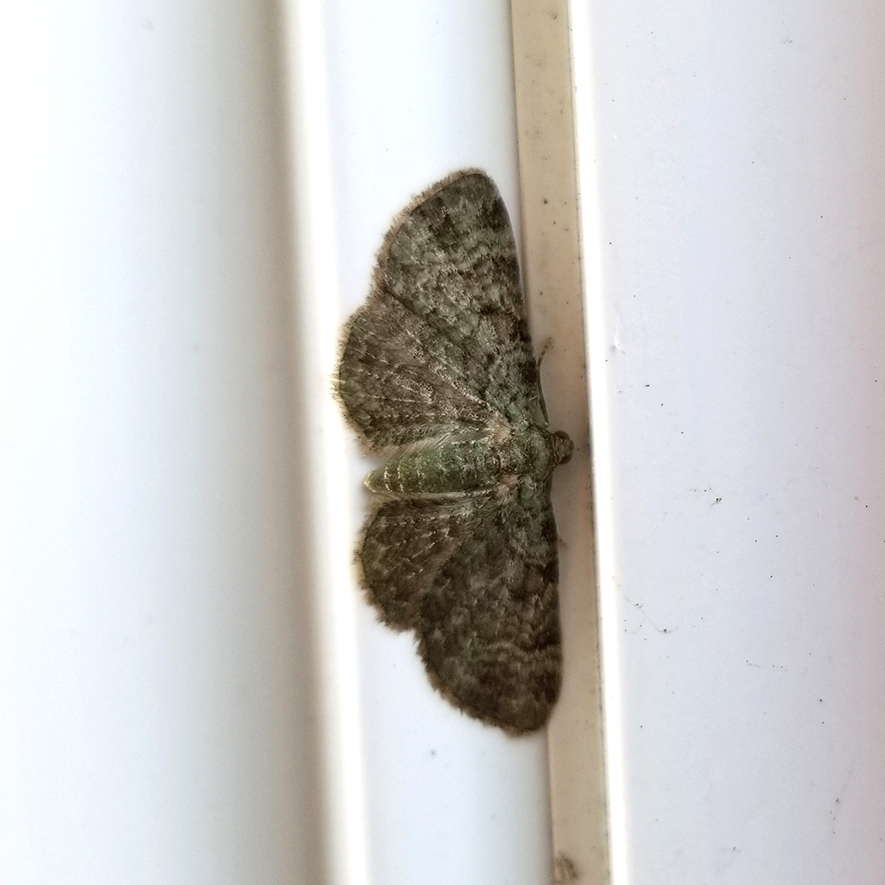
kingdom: Animalia
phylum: Arthropoda
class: Insecta
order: Lepidoptera
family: Geometridae
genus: Pasiphila
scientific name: Pasiphila rectangulata
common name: Green pug
